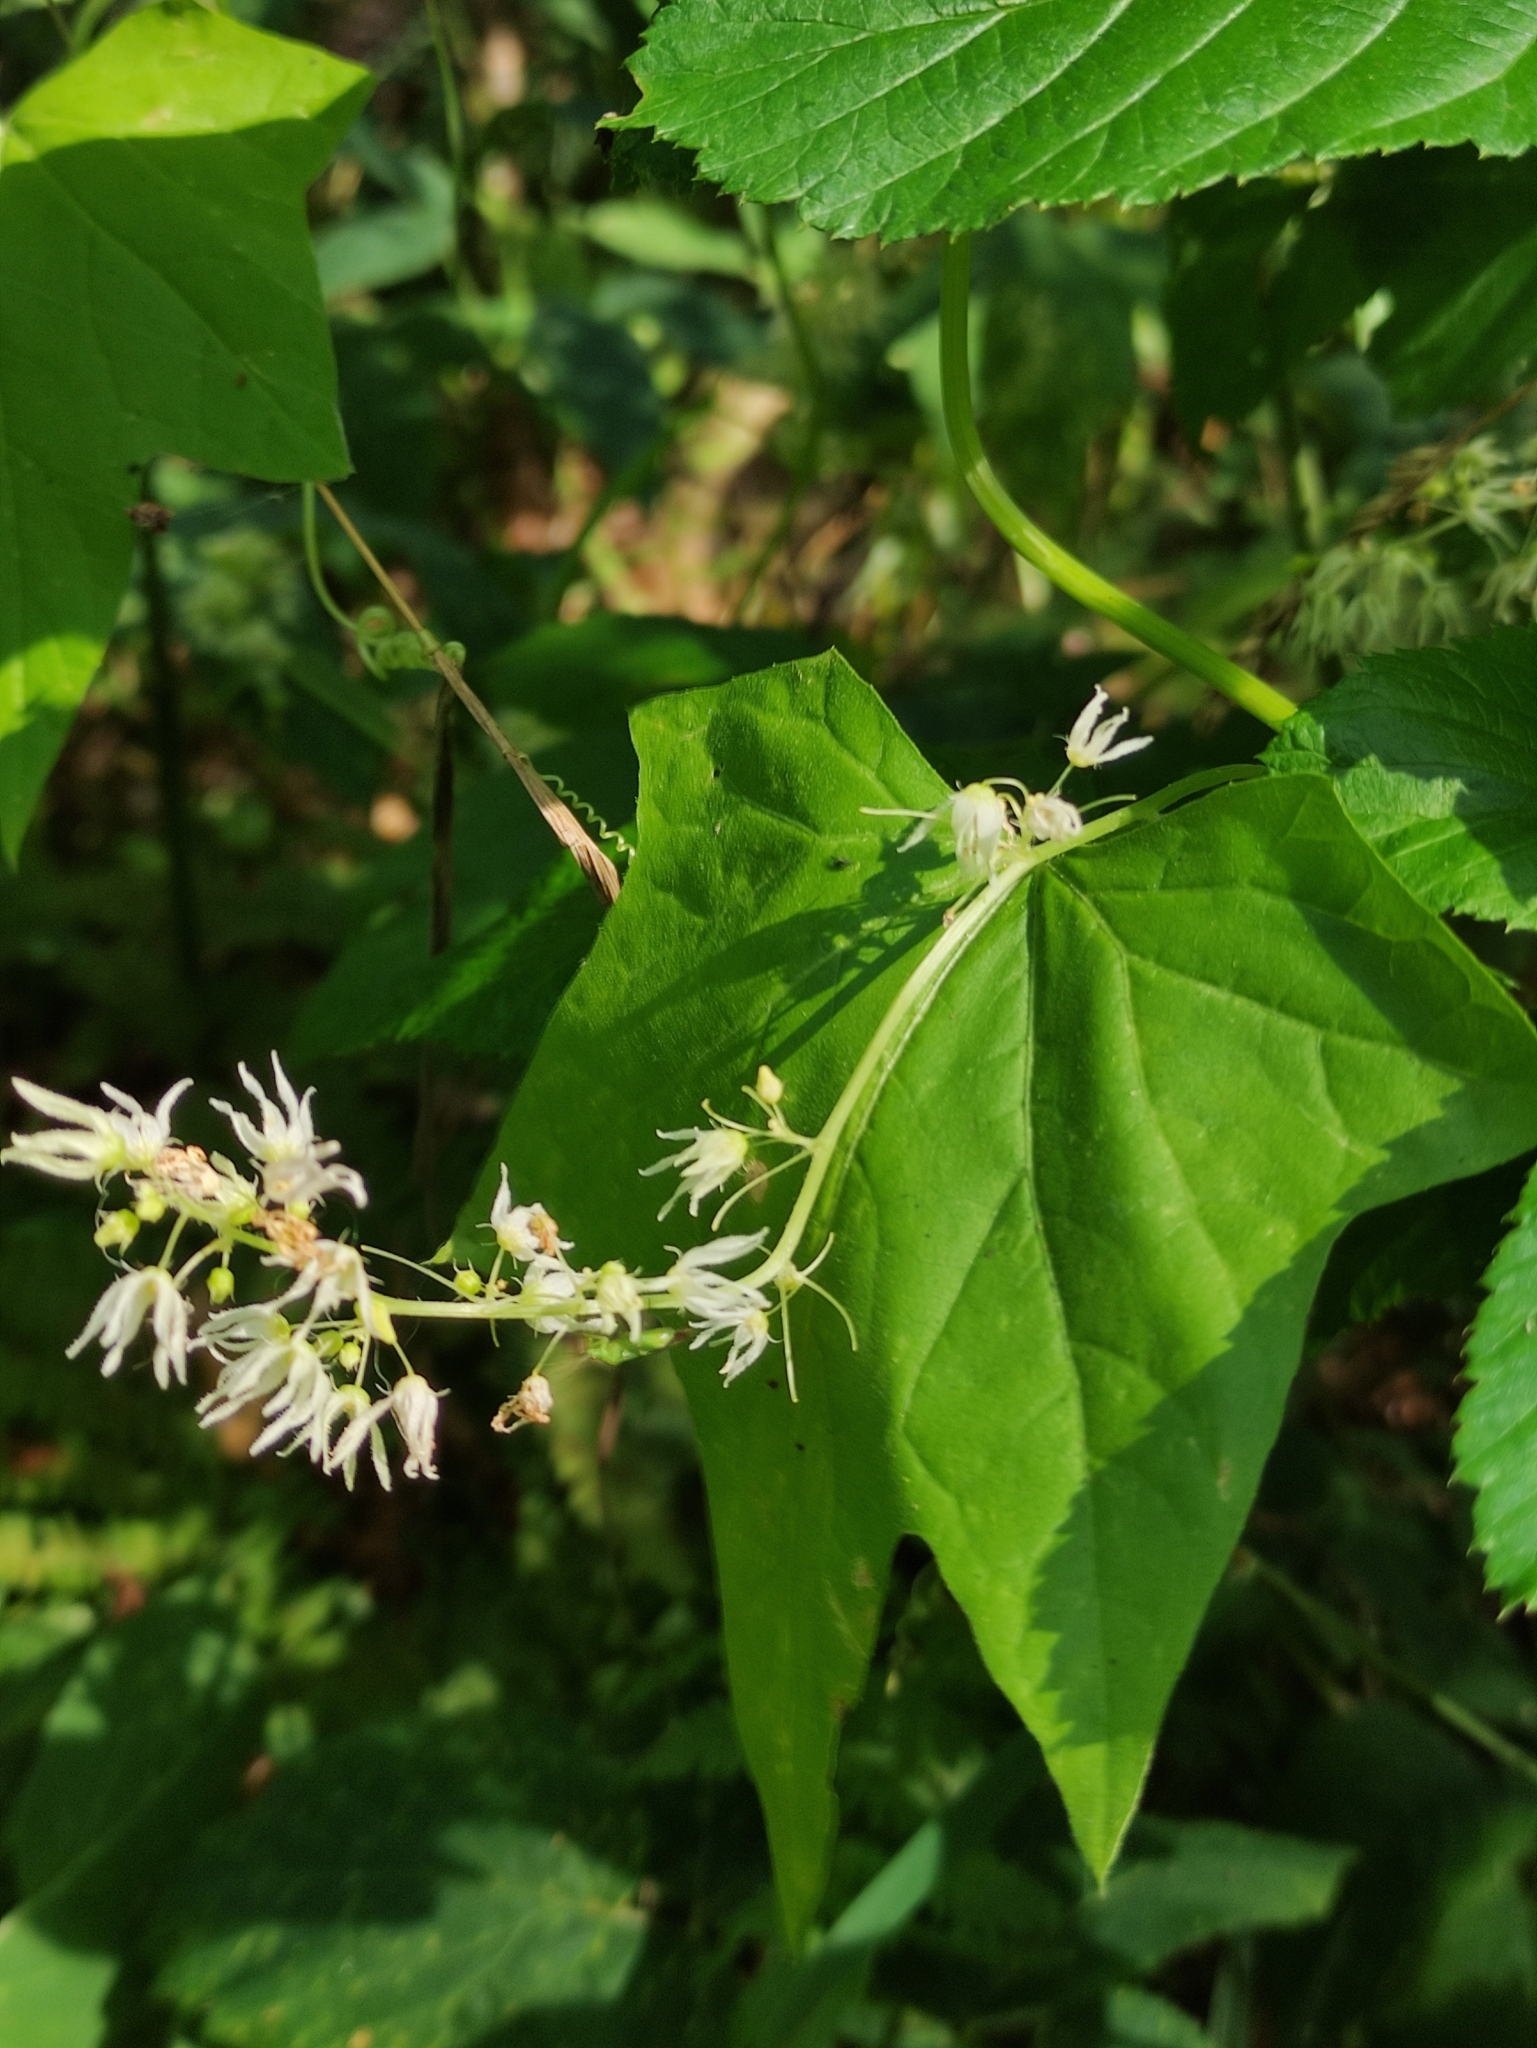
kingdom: Plantae
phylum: Tracheophyta
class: Magnoliopsida
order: Cucurbitales
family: Cucurbitaceae
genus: Echinocystis
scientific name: Echinocystis lobata
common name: Wild cucumber
